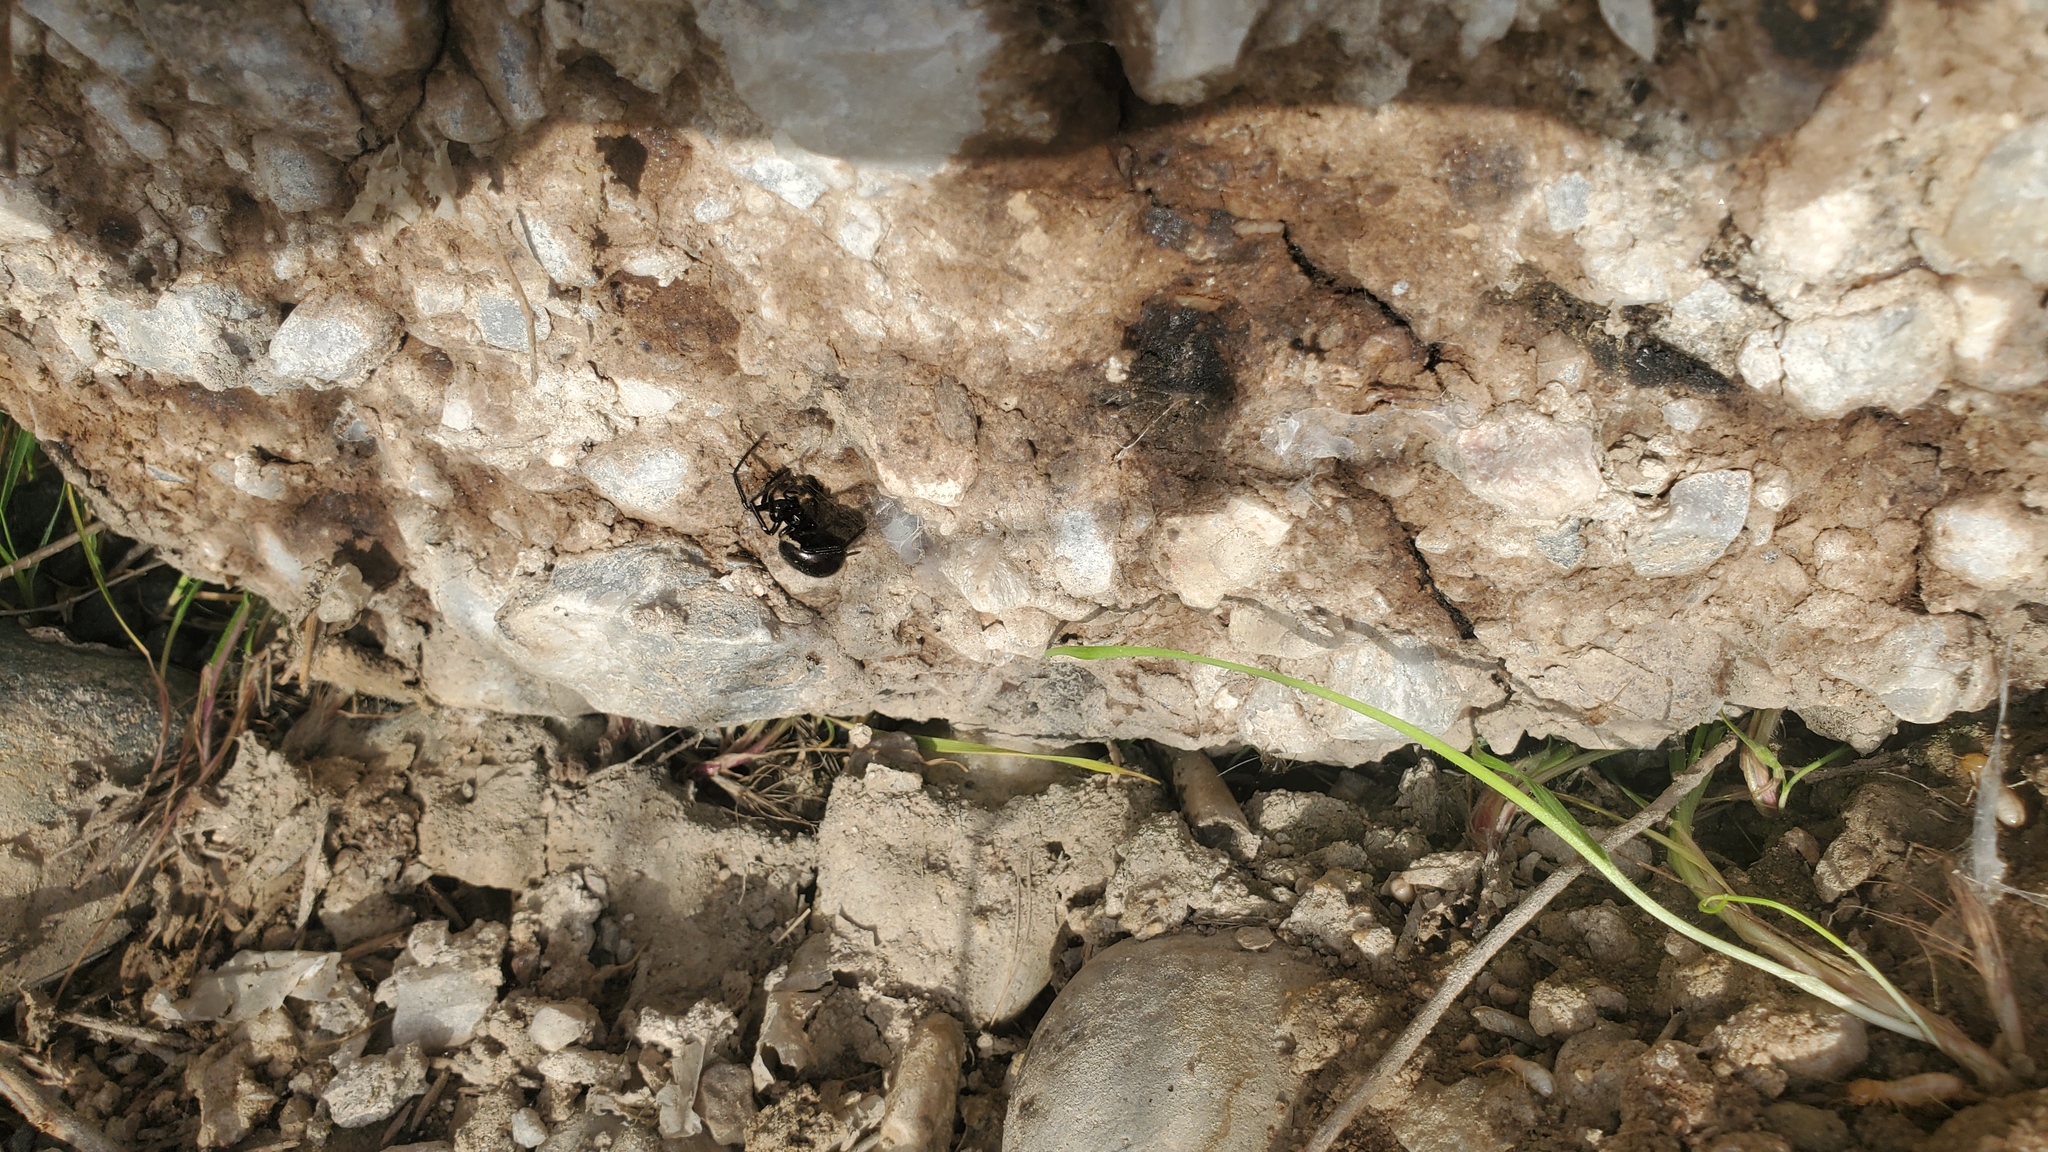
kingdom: Animalia
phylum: Arthropoda
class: Arachnida
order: Araneae
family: Theridiidae
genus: Steatoda
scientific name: Steatoda paykulliana
